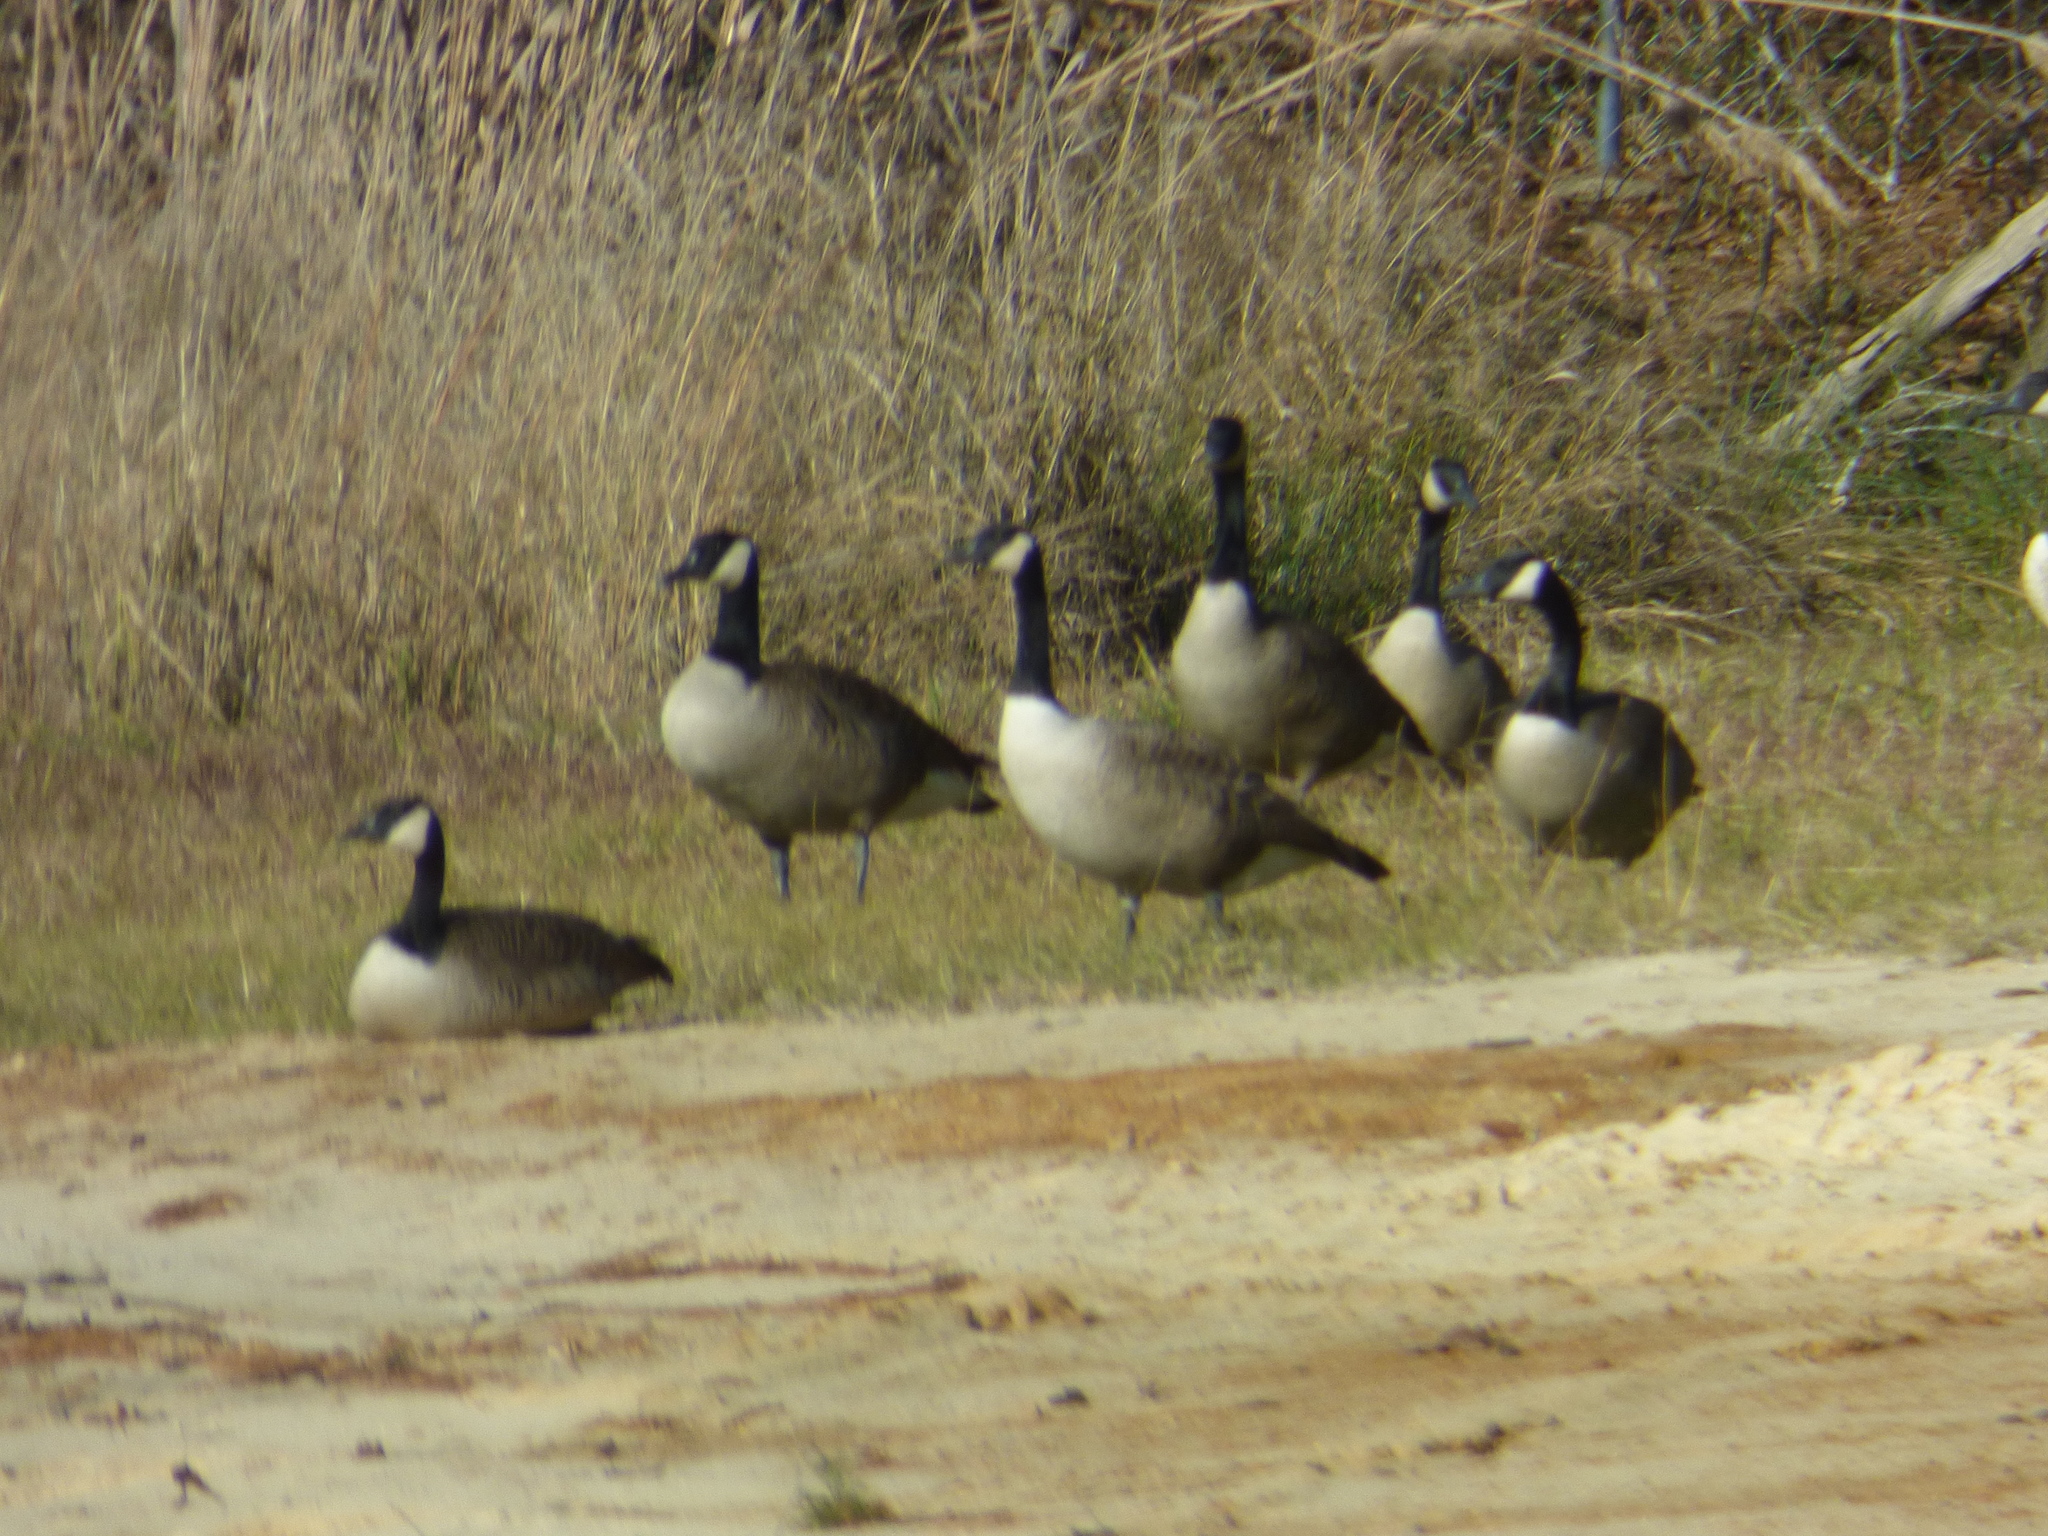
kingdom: Animalia
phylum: Chordata
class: Aves
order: Anseriformes
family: Anatidae
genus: Branta
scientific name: Branta canadensis
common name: Canada goose
